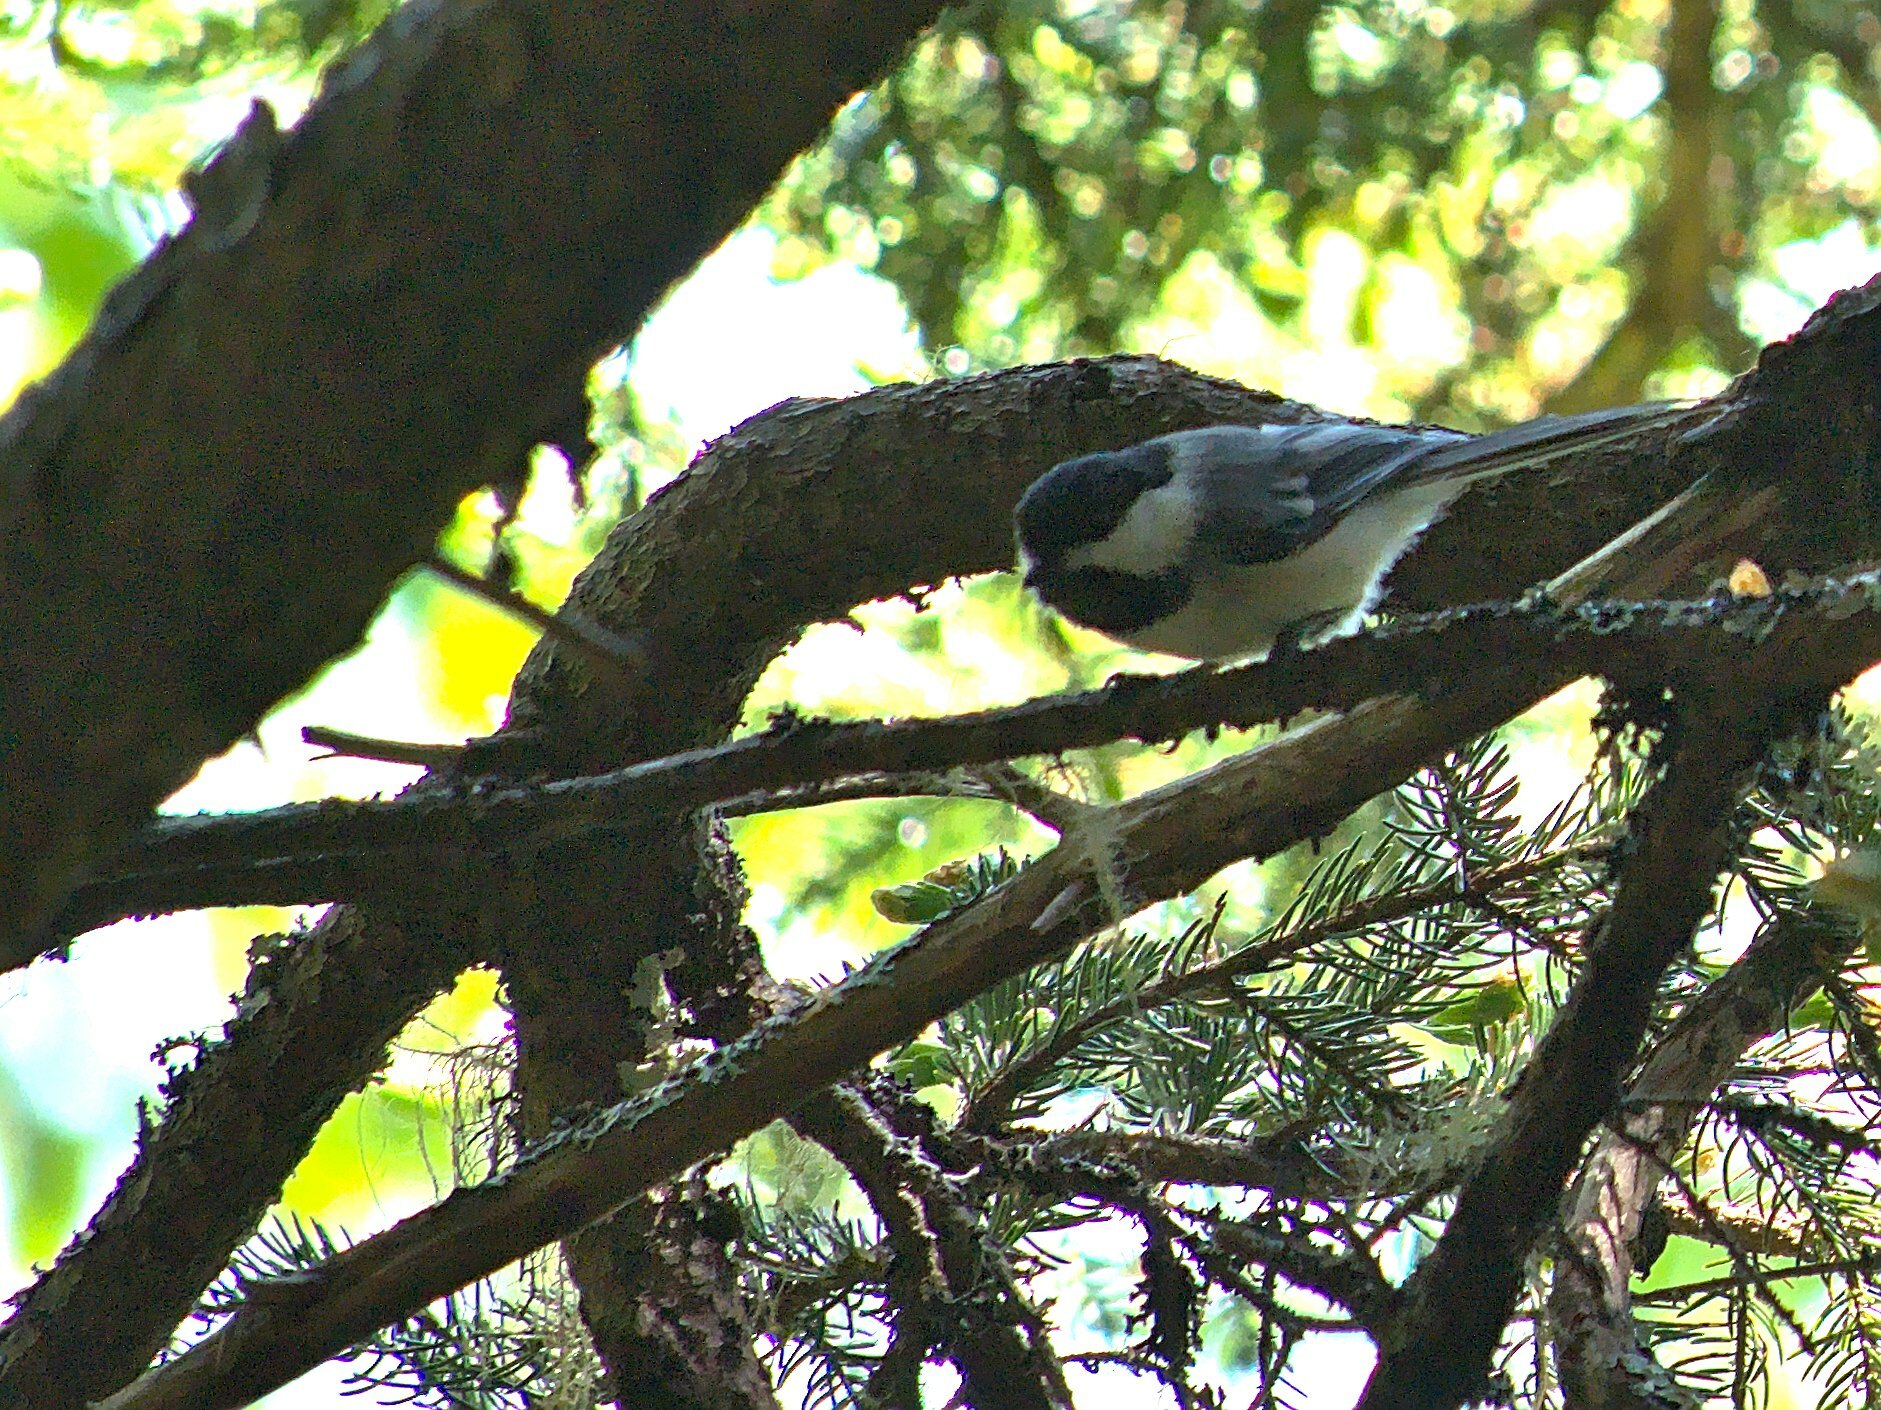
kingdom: Animalia
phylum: Chordata
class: Aves
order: Passeriformes
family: Paridae
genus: Poecile
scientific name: Poecile atricapillus
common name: Black-capped chickadee
